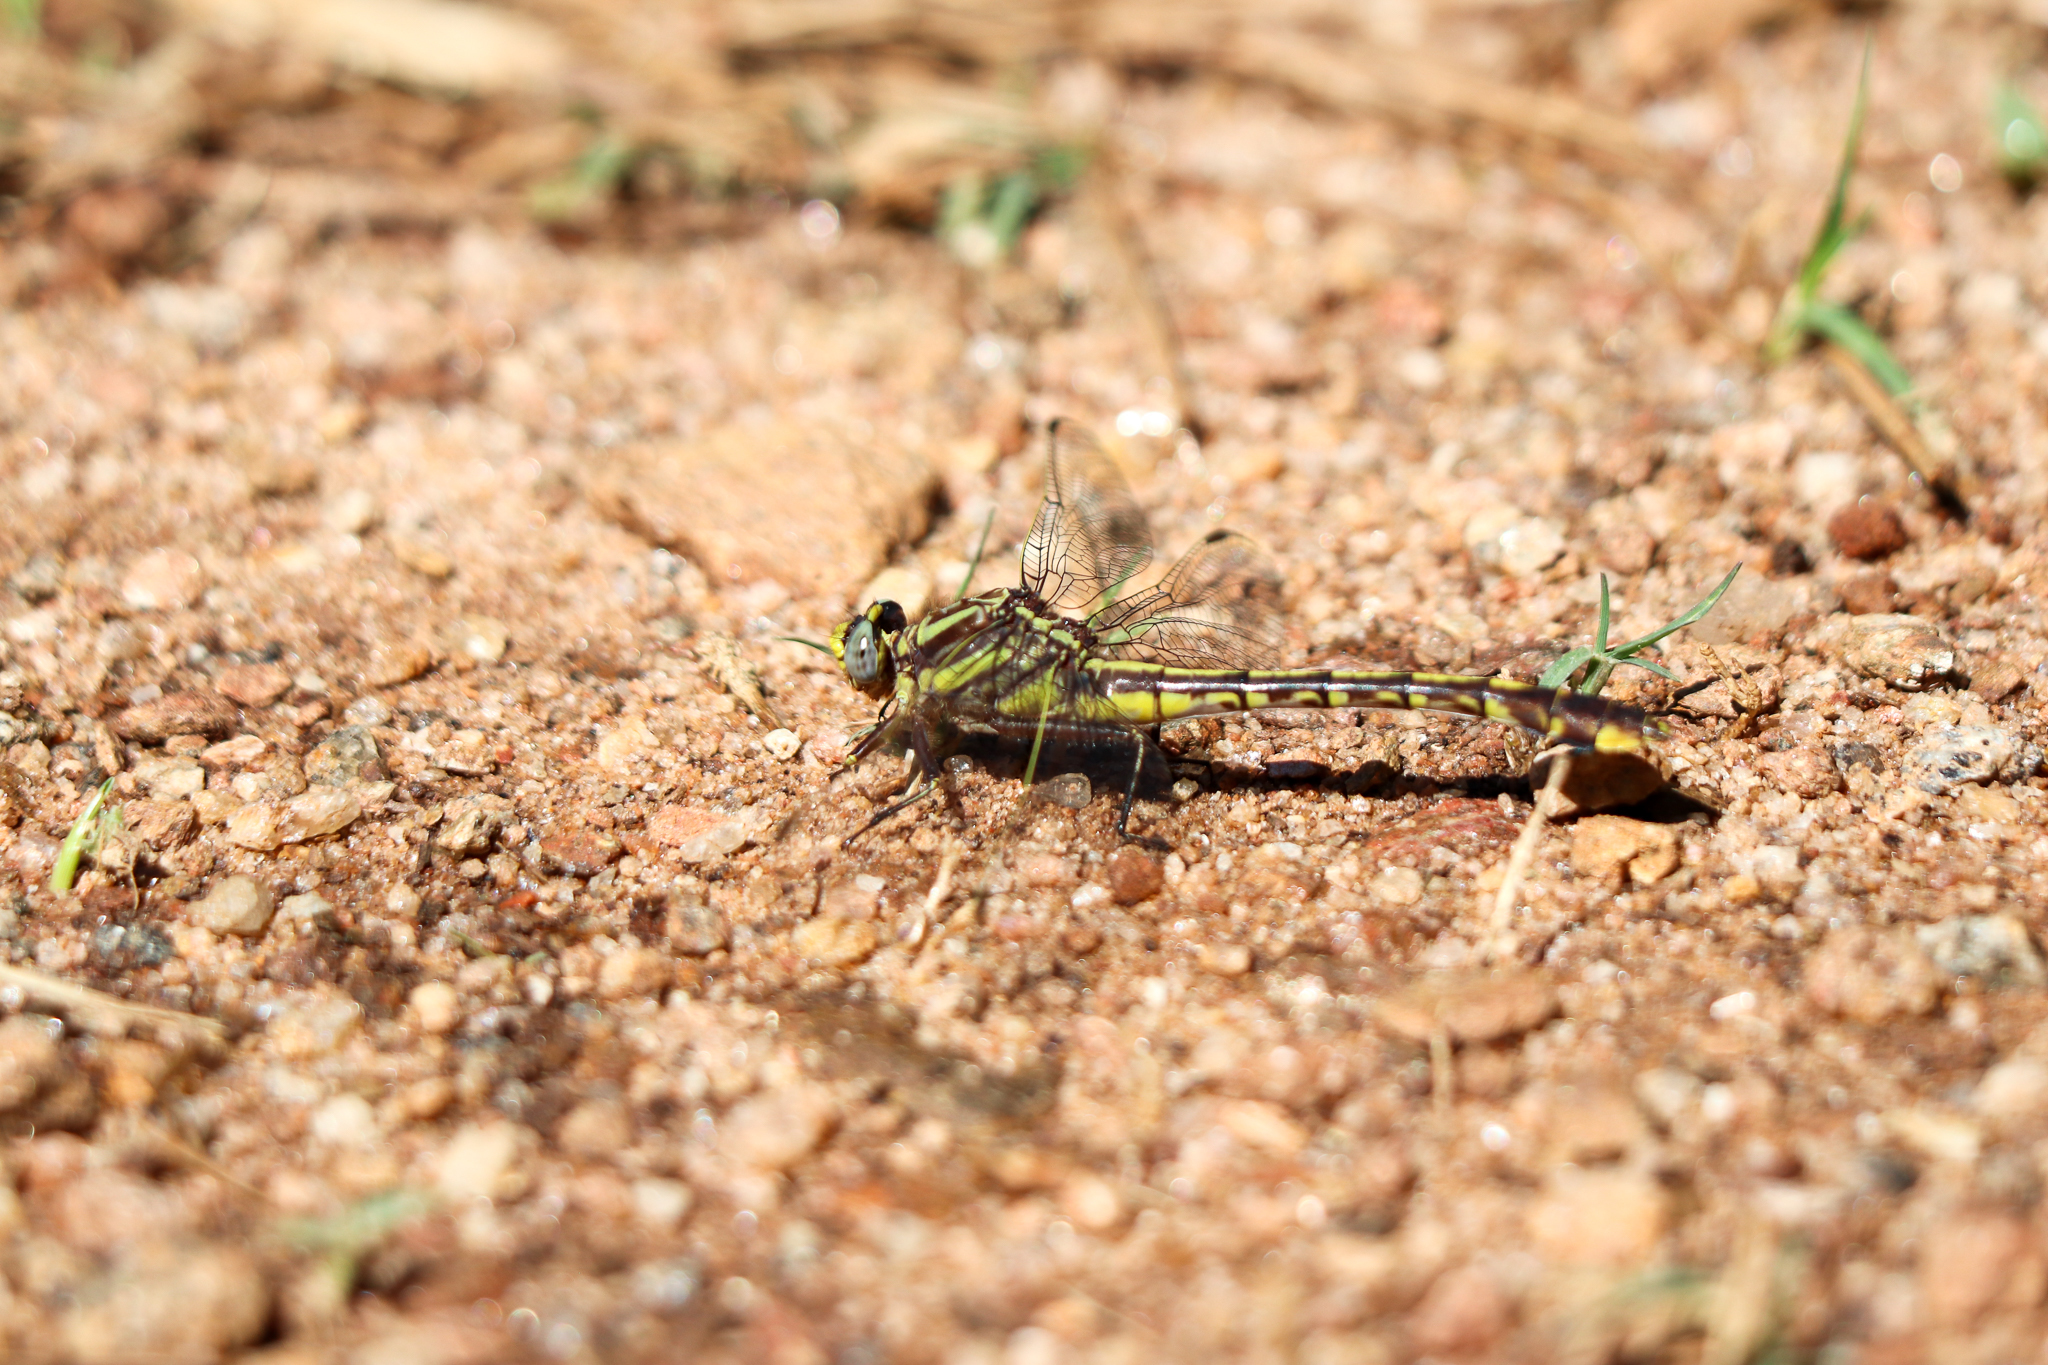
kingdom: Animalia
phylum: Arthropoda
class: Insecta
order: Odonata
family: Gomphidae
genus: Gomphurus
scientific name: Gomphurus hybridus
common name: Cocoa clubtail
